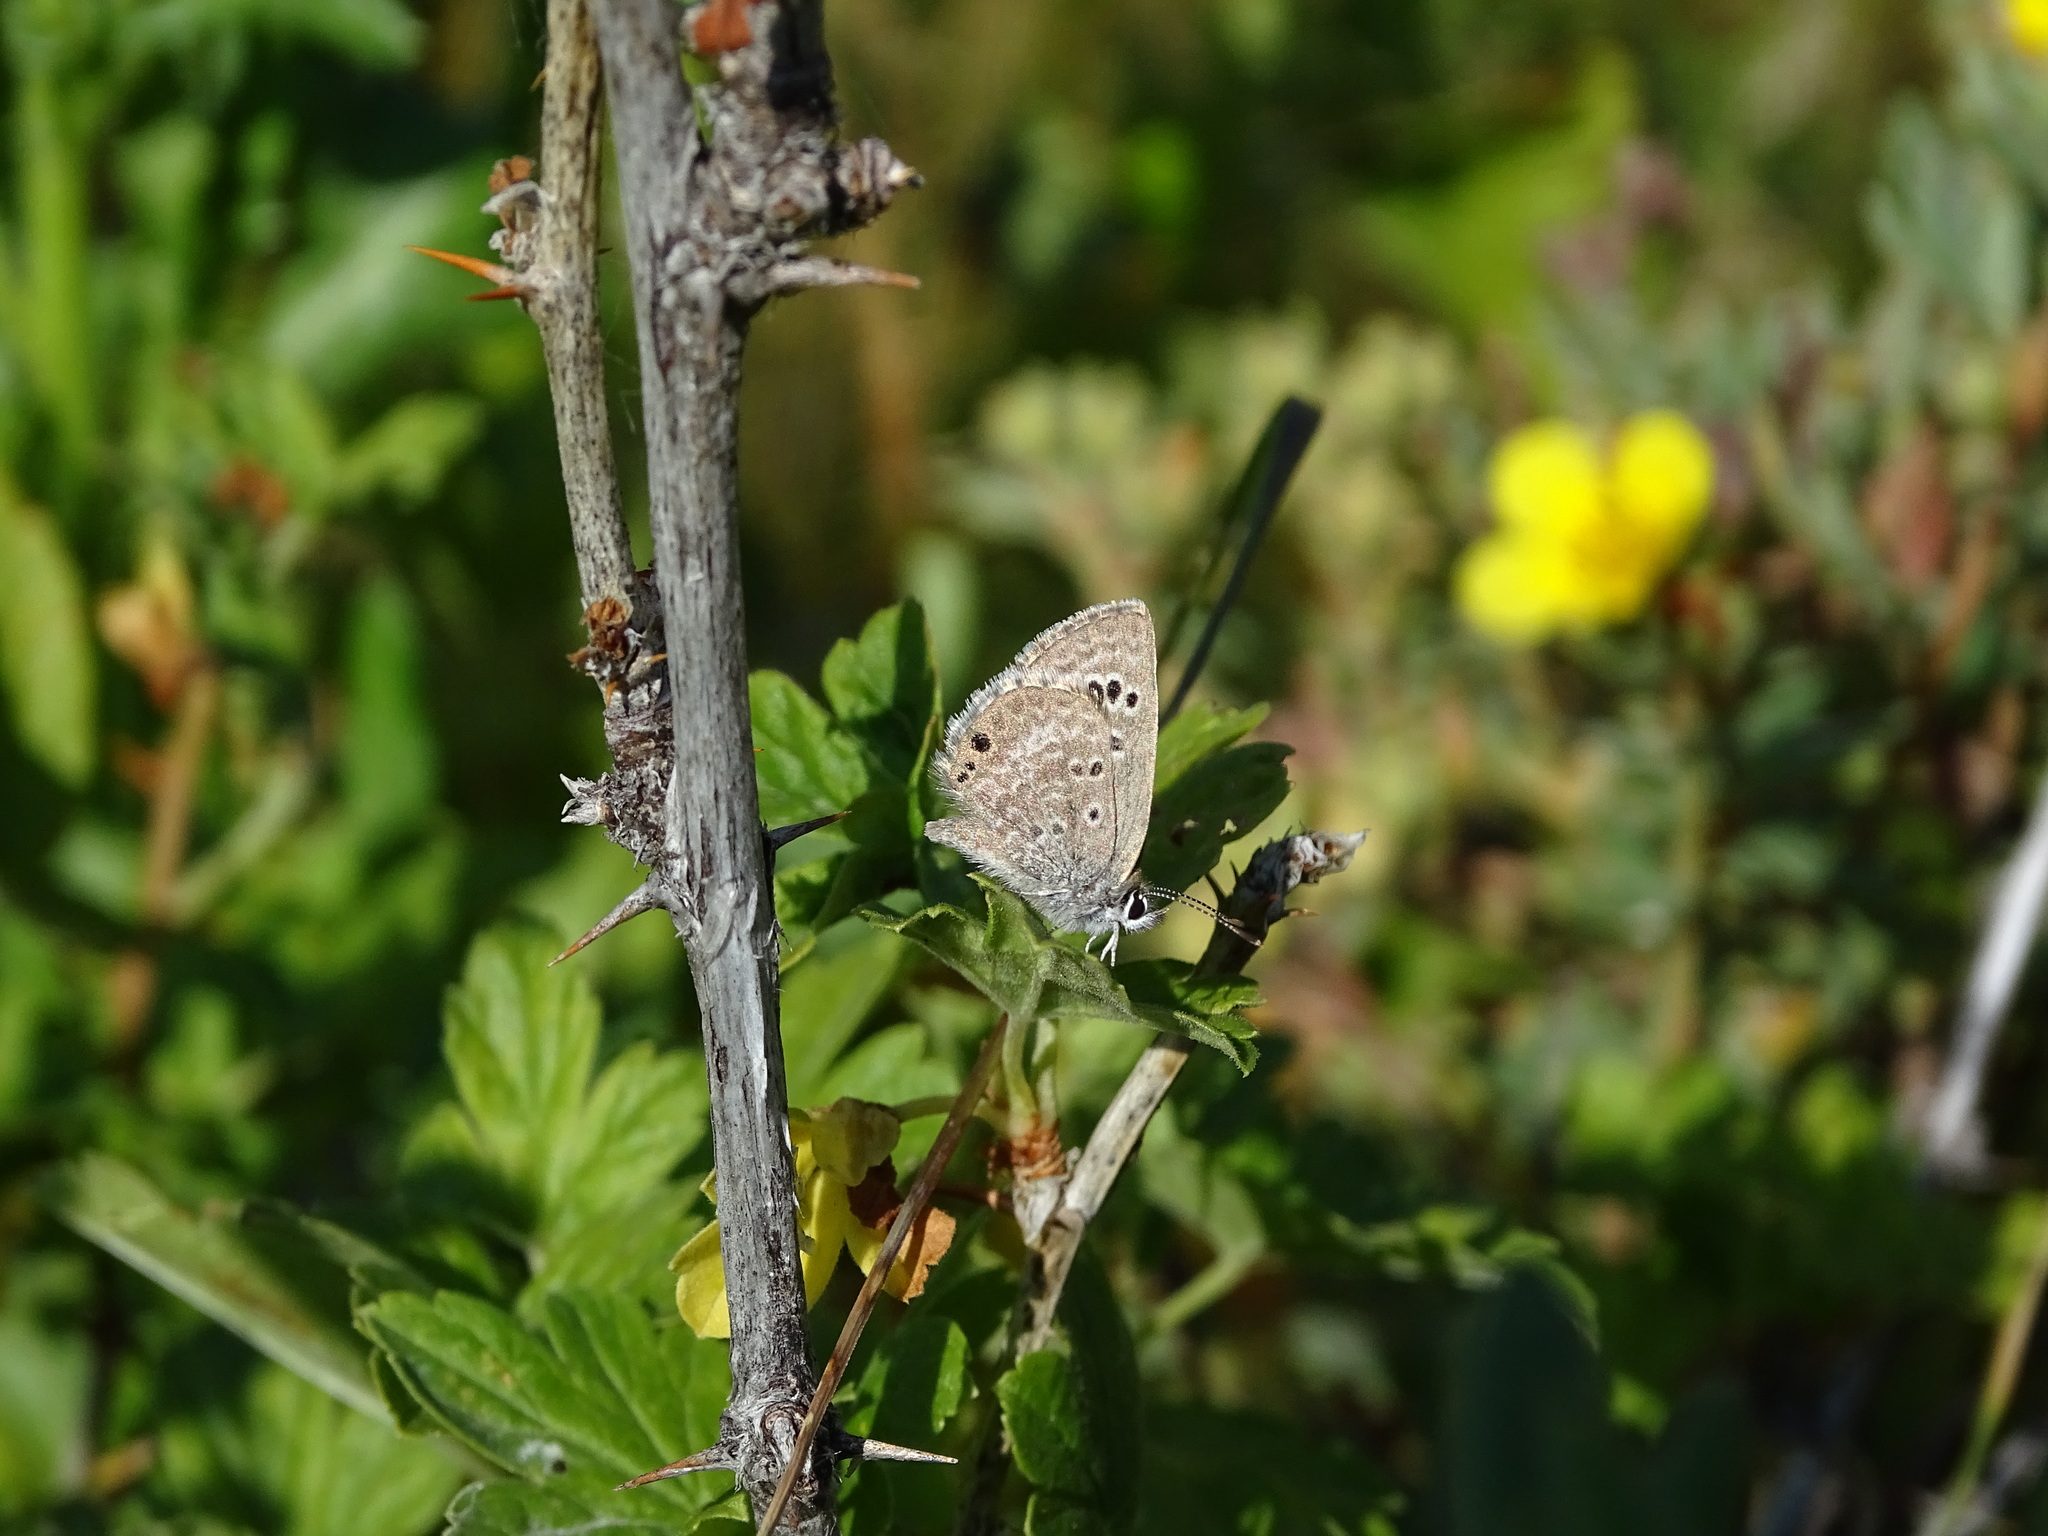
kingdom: Animalia
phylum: Arthropoda
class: Insecta
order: Lepidoptera
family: Lycaenidae
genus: Echinargus
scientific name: Echinargus isola
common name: Reakirt's blue
